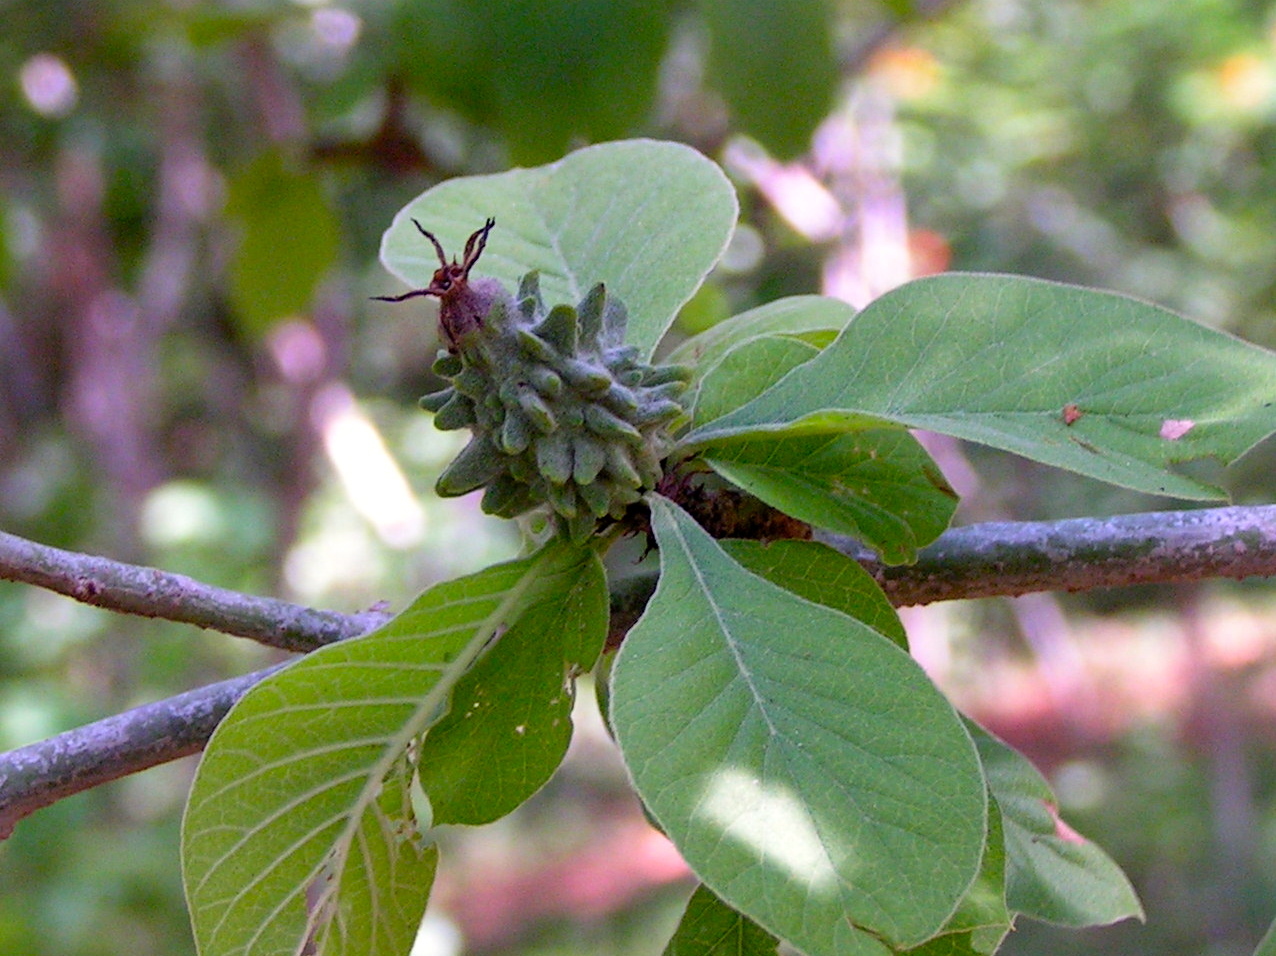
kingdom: Plantae
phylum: Tracheophyta
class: Magnoliopsida
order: Gentianales
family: Rubiaceae
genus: Randia
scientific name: Randia echinocarpa
